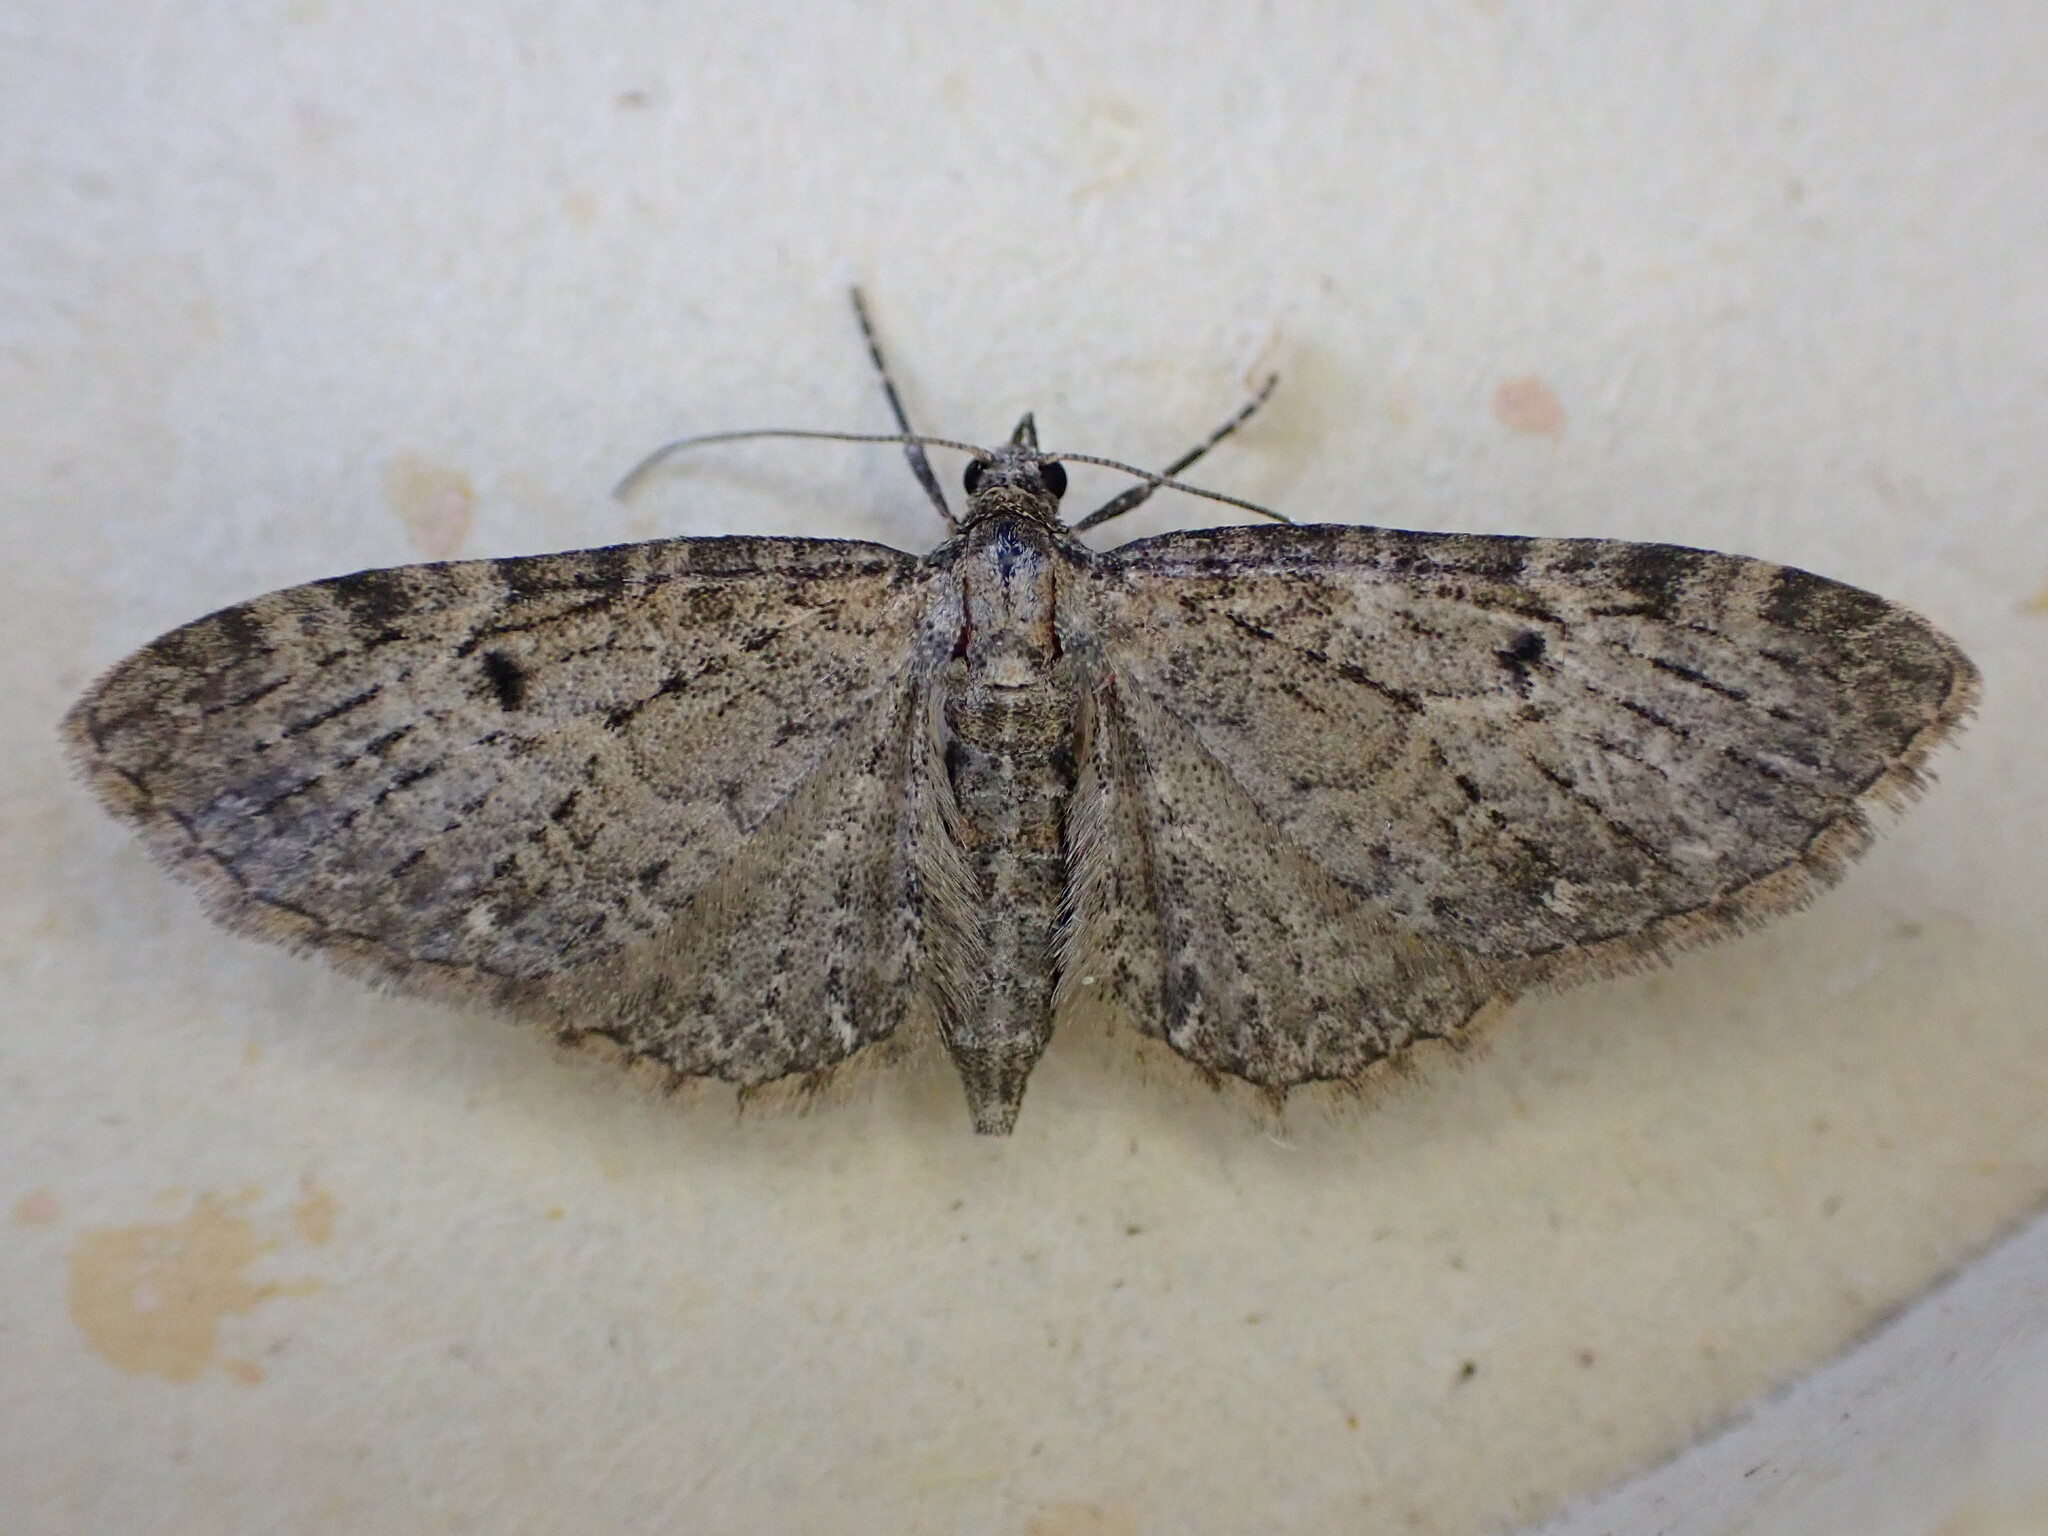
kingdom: Animalia
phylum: Arthropoda
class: Insecta
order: Lepidoptera
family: Geometridae
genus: Eupithecia
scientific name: Eupithecia virgaureata
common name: Golden-rod pug
